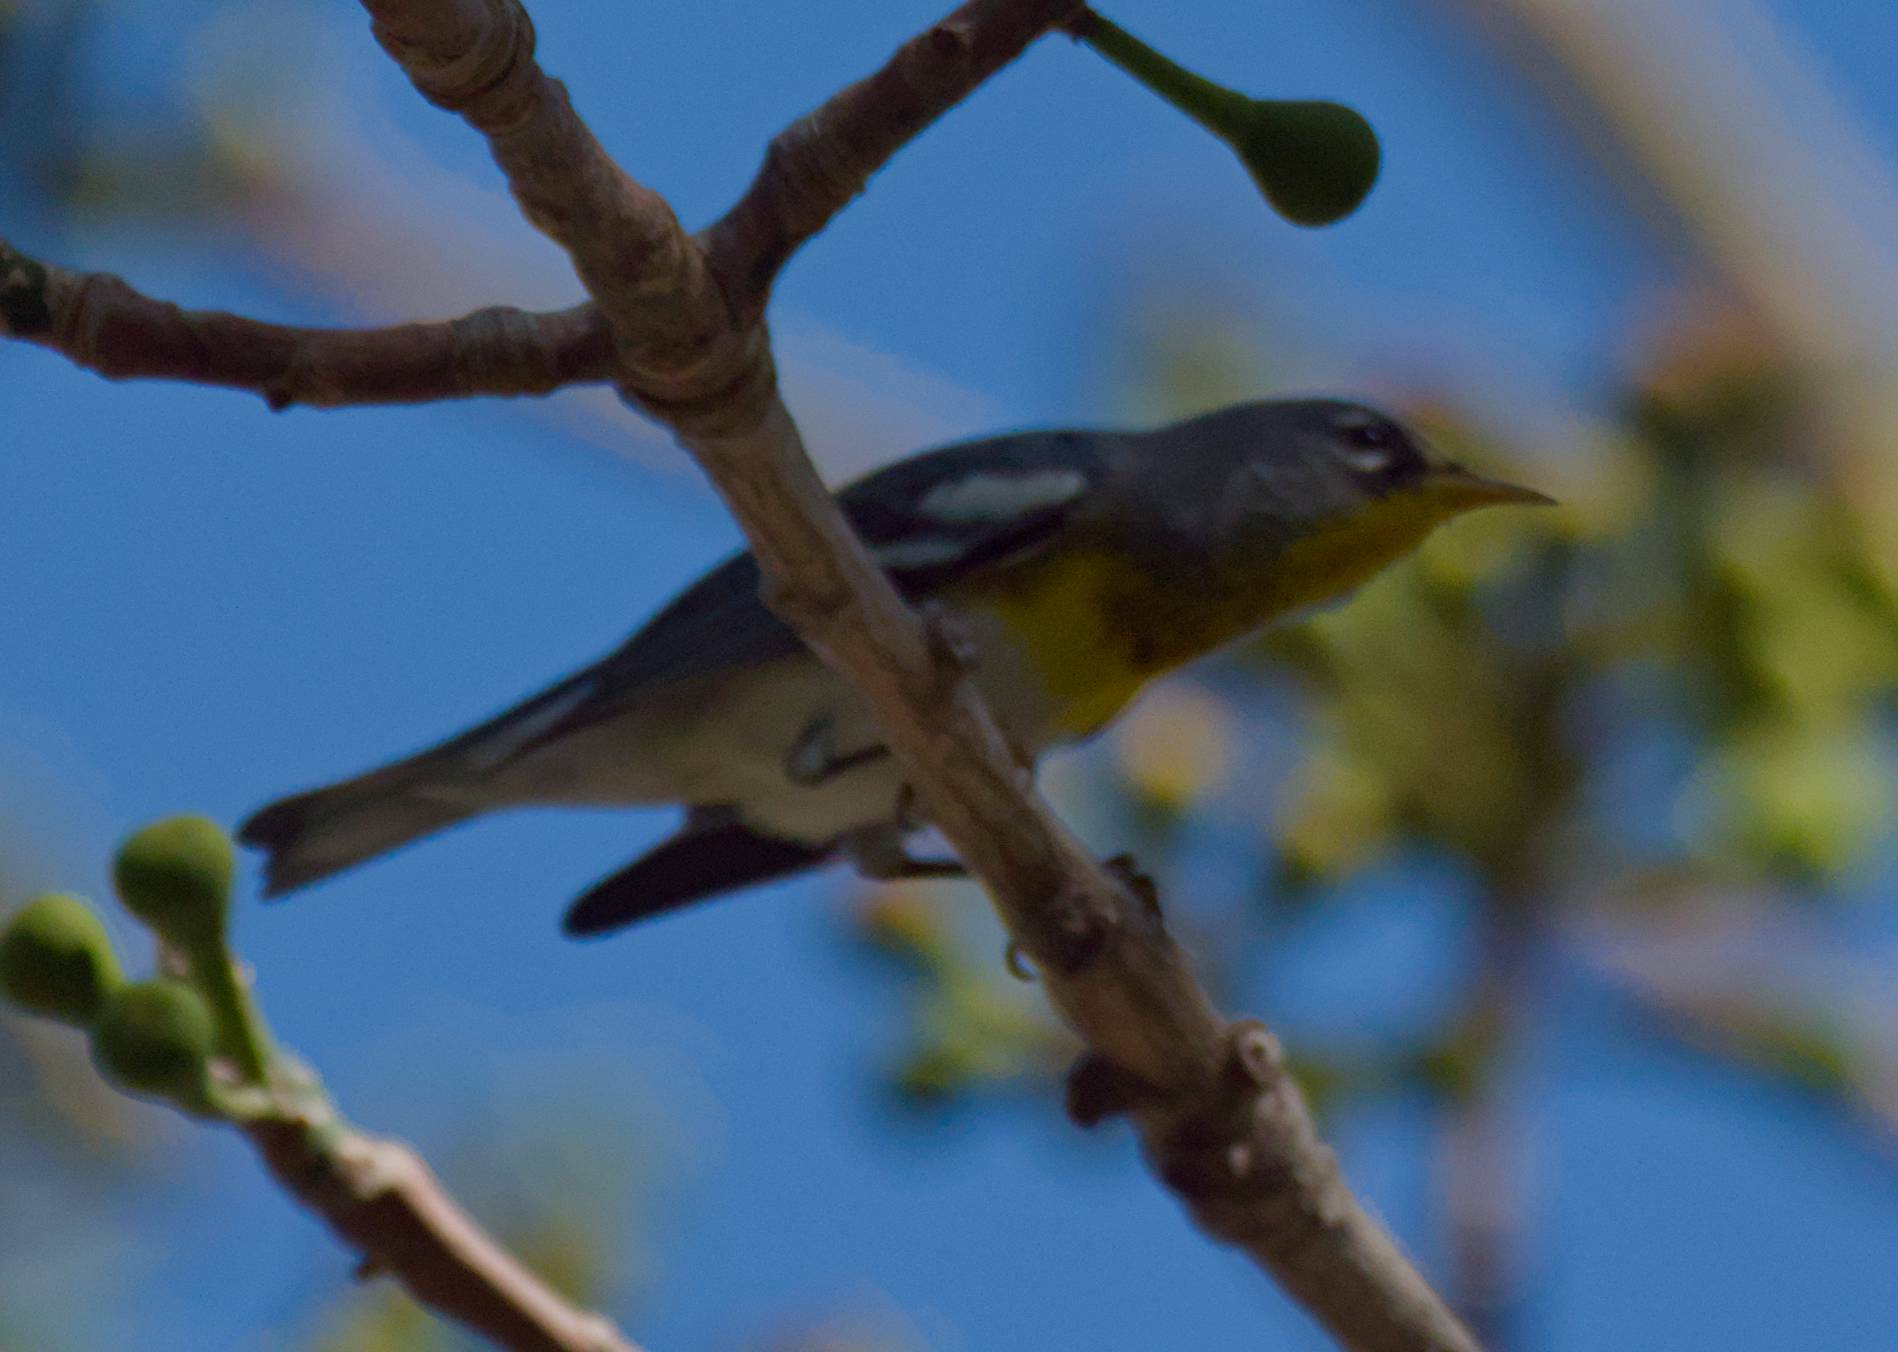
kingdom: Animalia
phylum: Chordata
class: Aves
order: Passeriformes
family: Parulidae
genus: Setophaga
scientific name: Setophaga americana
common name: Northern parula
